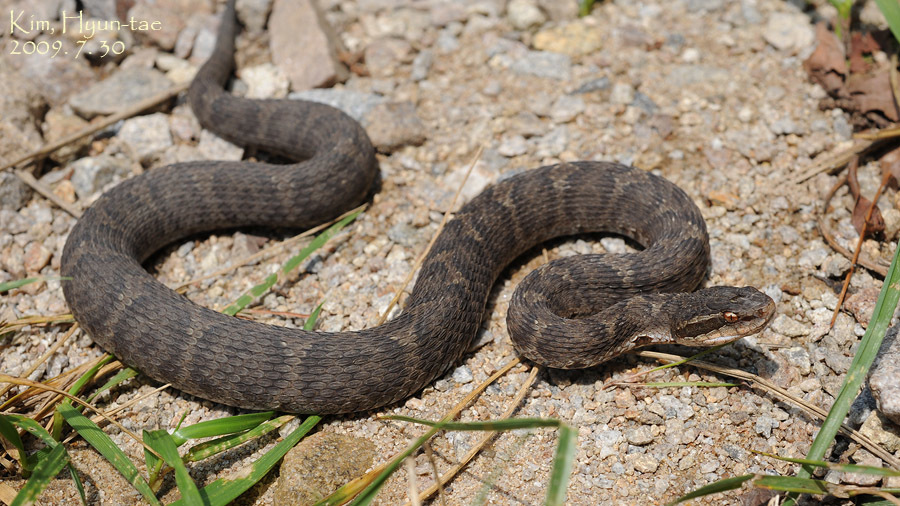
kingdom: Animalia
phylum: Chordata
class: Squamata
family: Viperidae
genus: Gloydius
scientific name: Gloydius ussuriensis
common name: Ussuri mamushi
